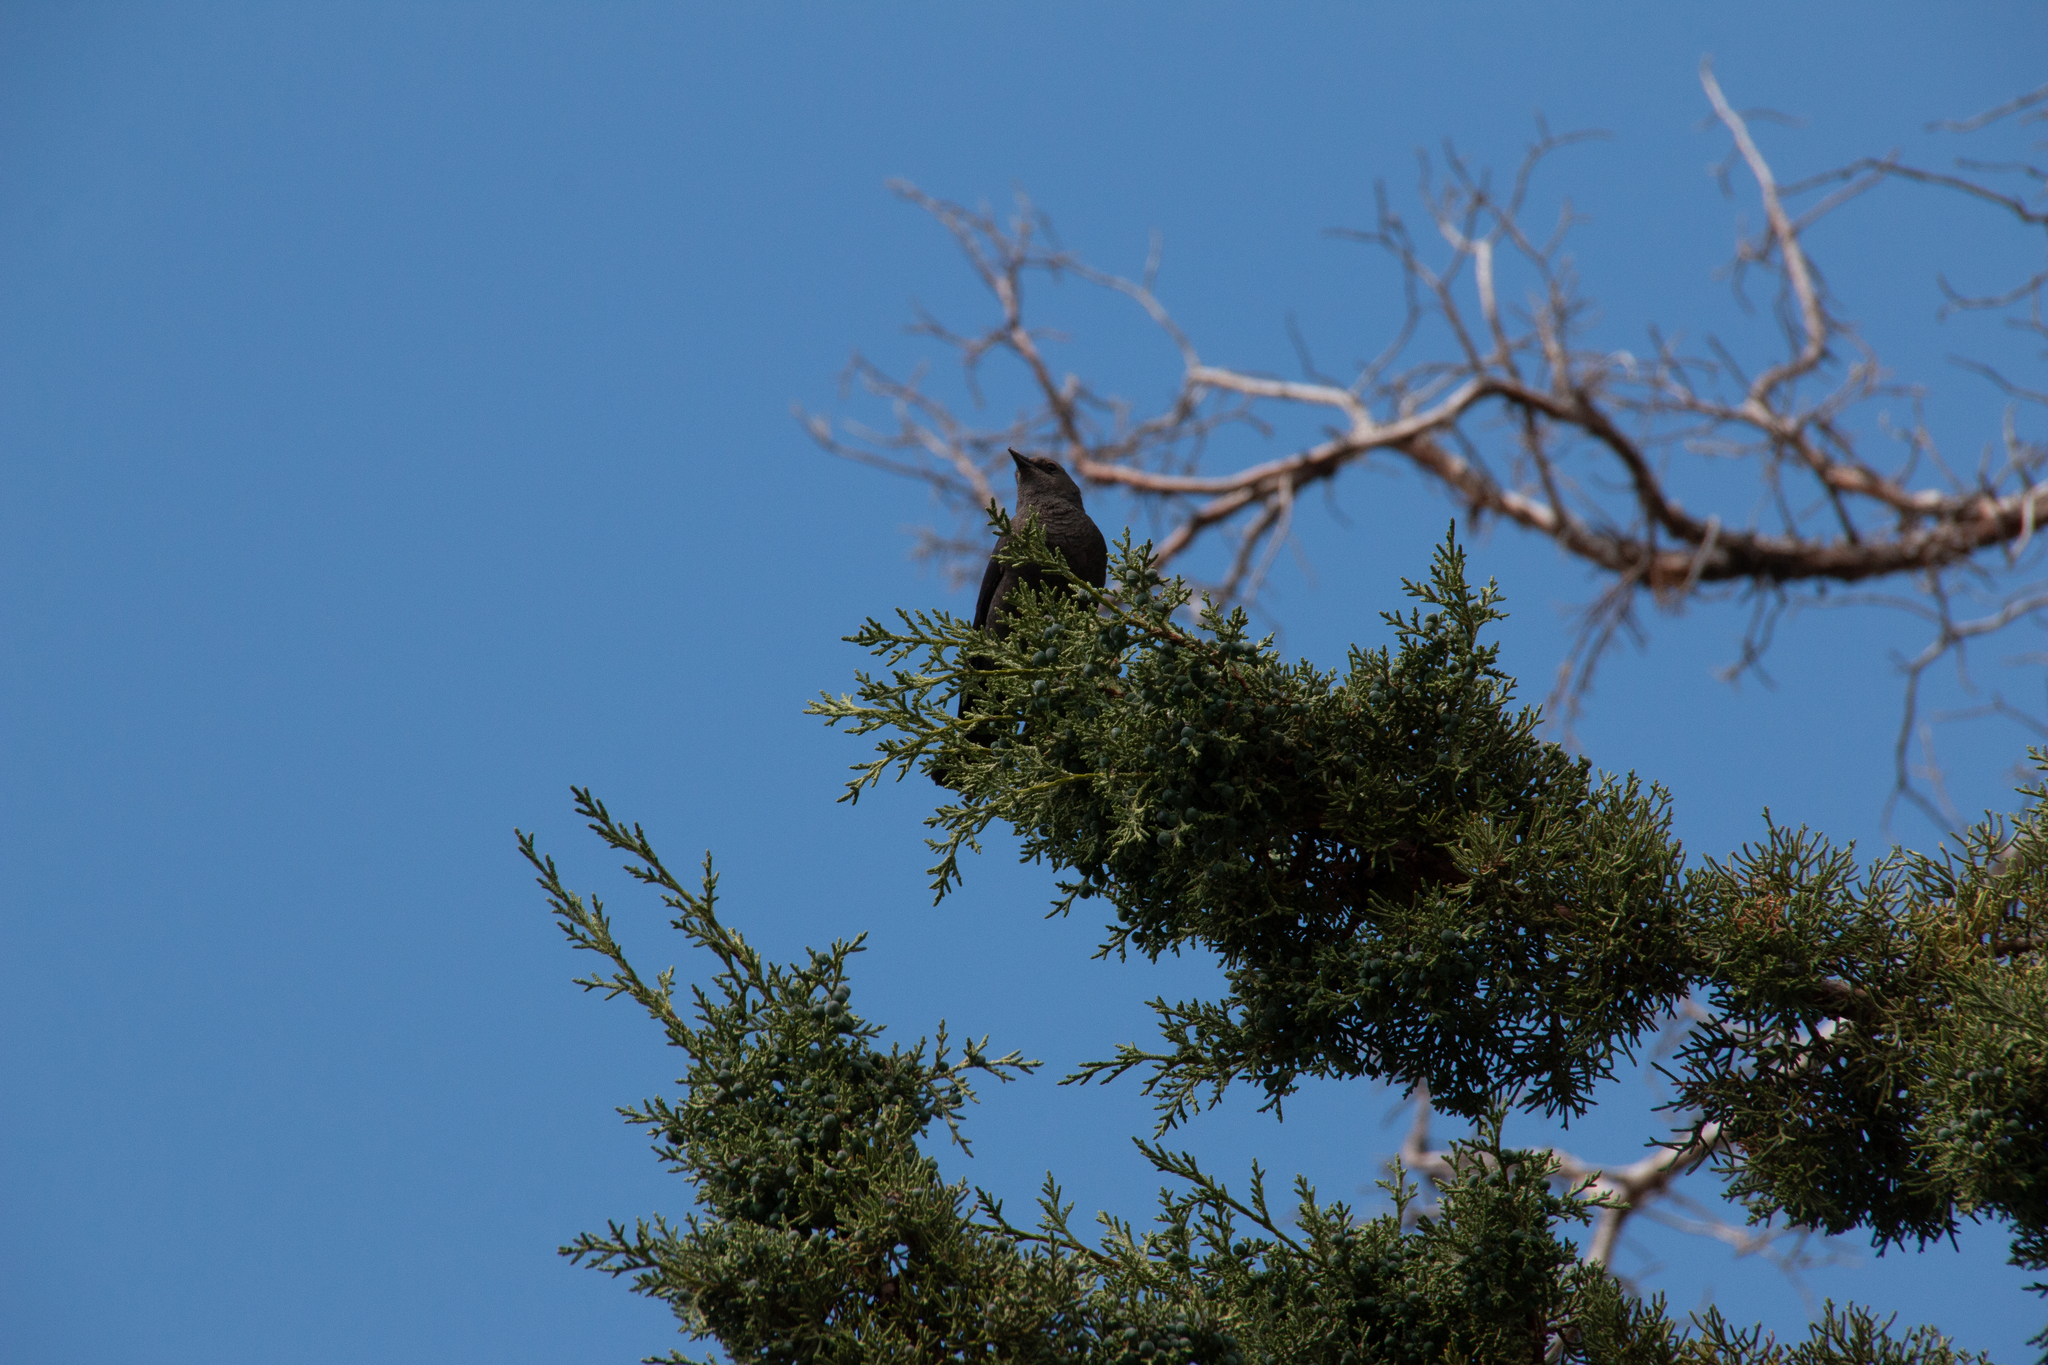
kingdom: Animalia
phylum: Chordata
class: Aves
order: Passeriformes
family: Icteridae
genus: Euphagus
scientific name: Euphagus cyanocephalus
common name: Brewer's blackbird
